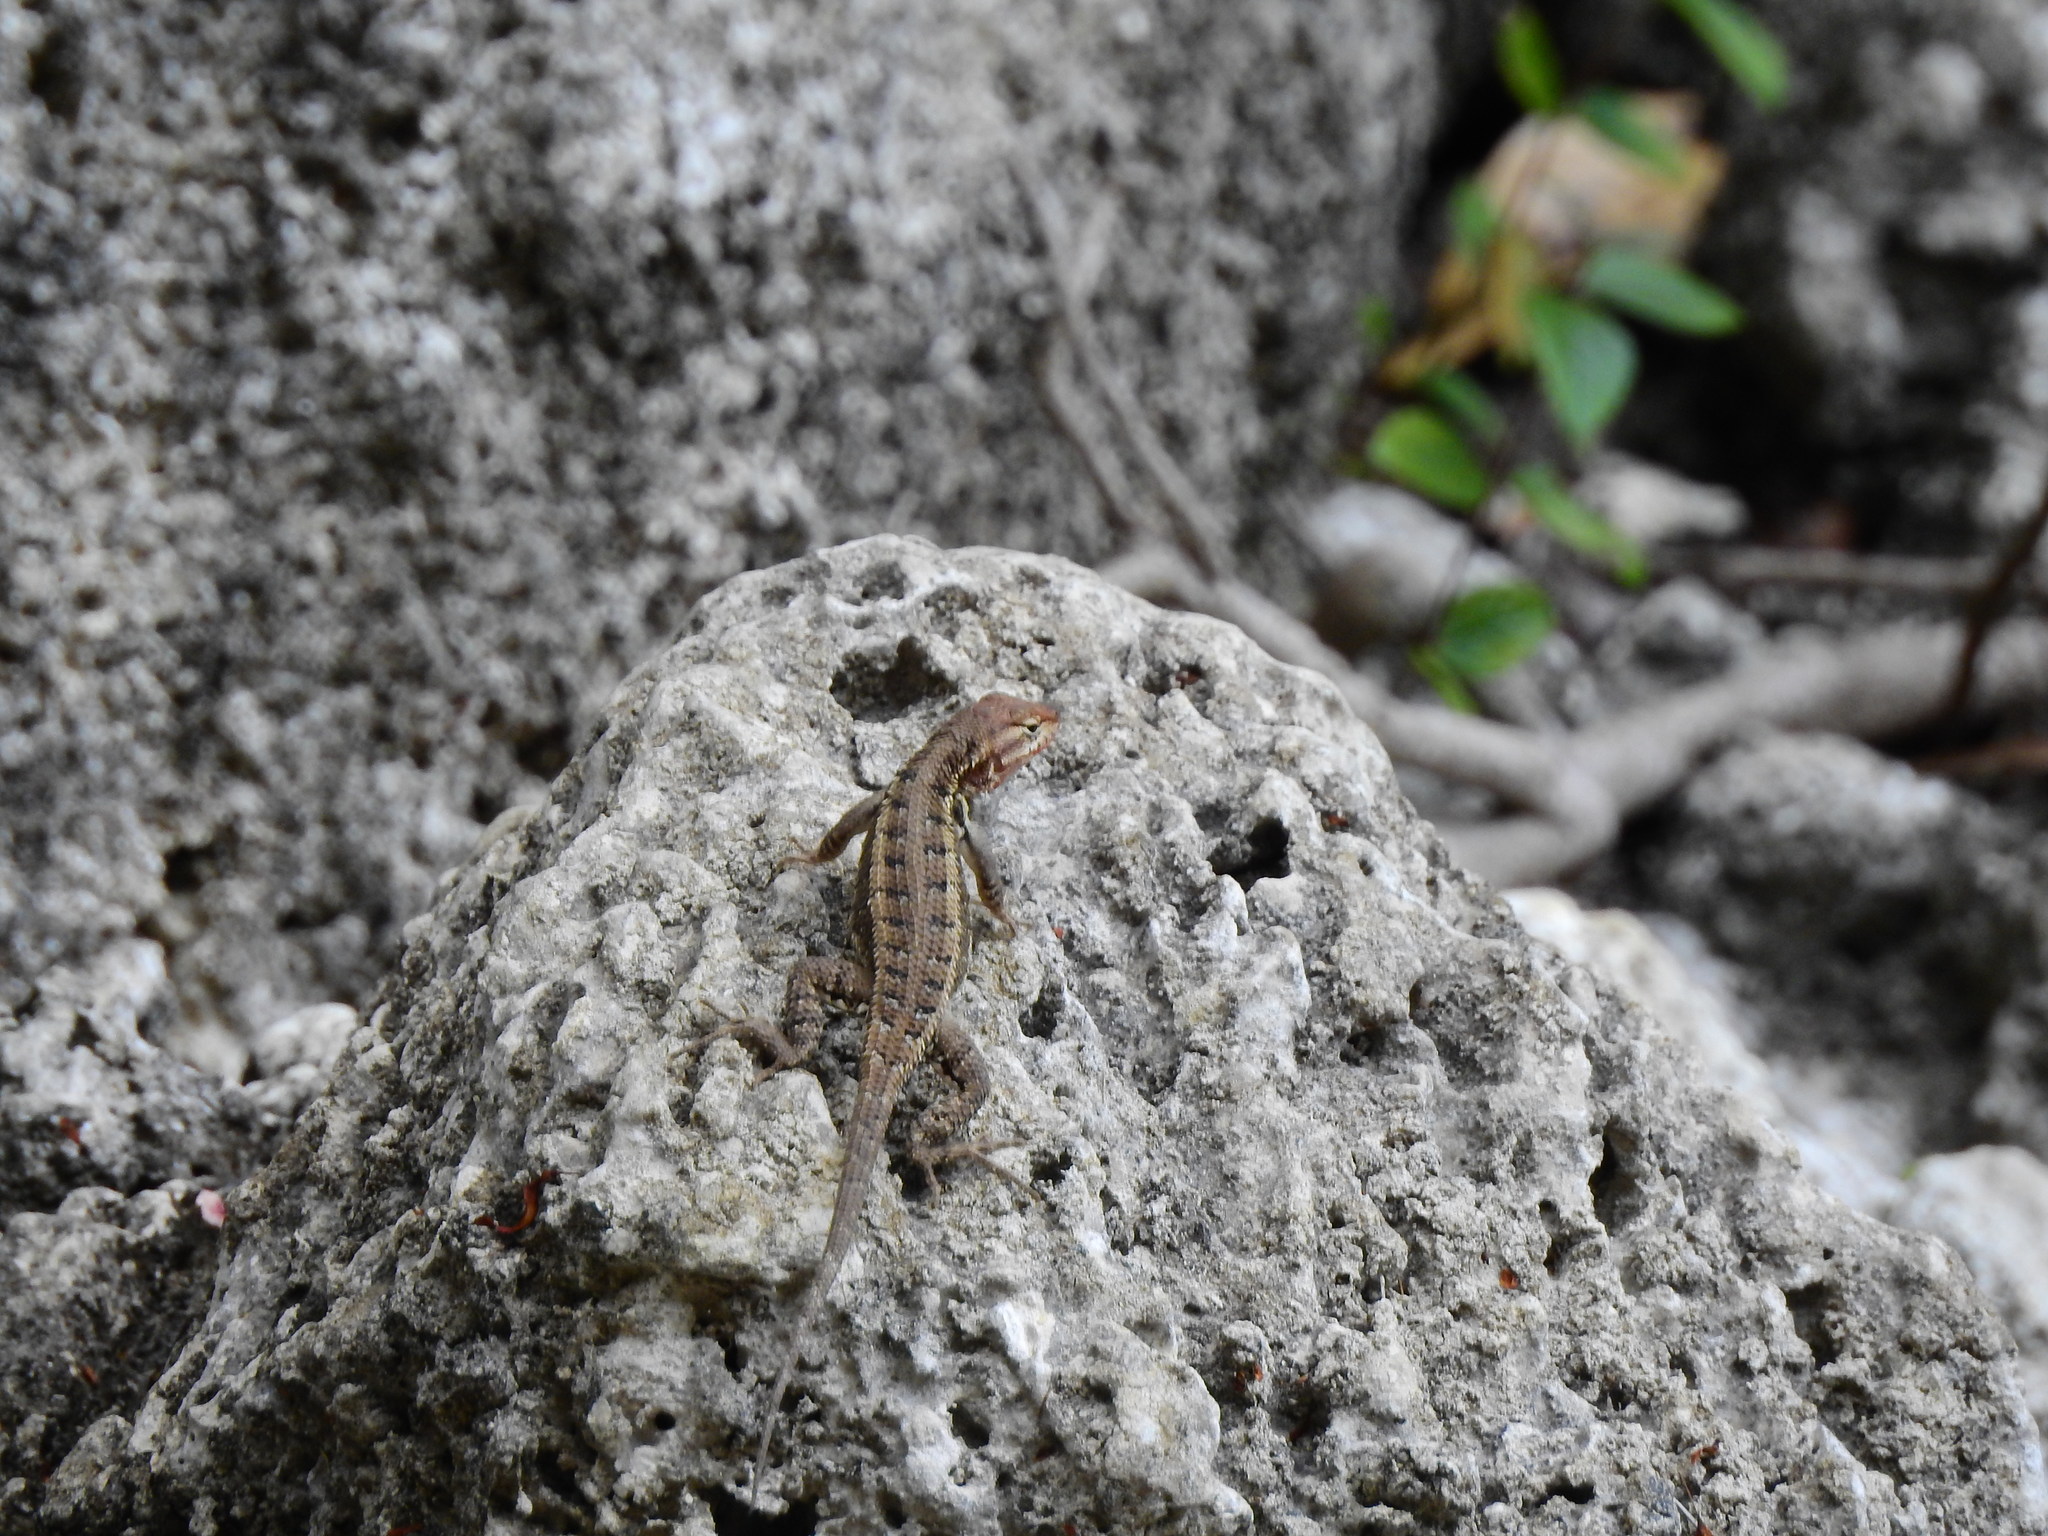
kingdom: Animalia
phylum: Chordata
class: Squamata
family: Phrynosomatidae
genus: Sceloporus
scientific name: Sceloporus teapensis
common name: Teapen rosebelly lizard
